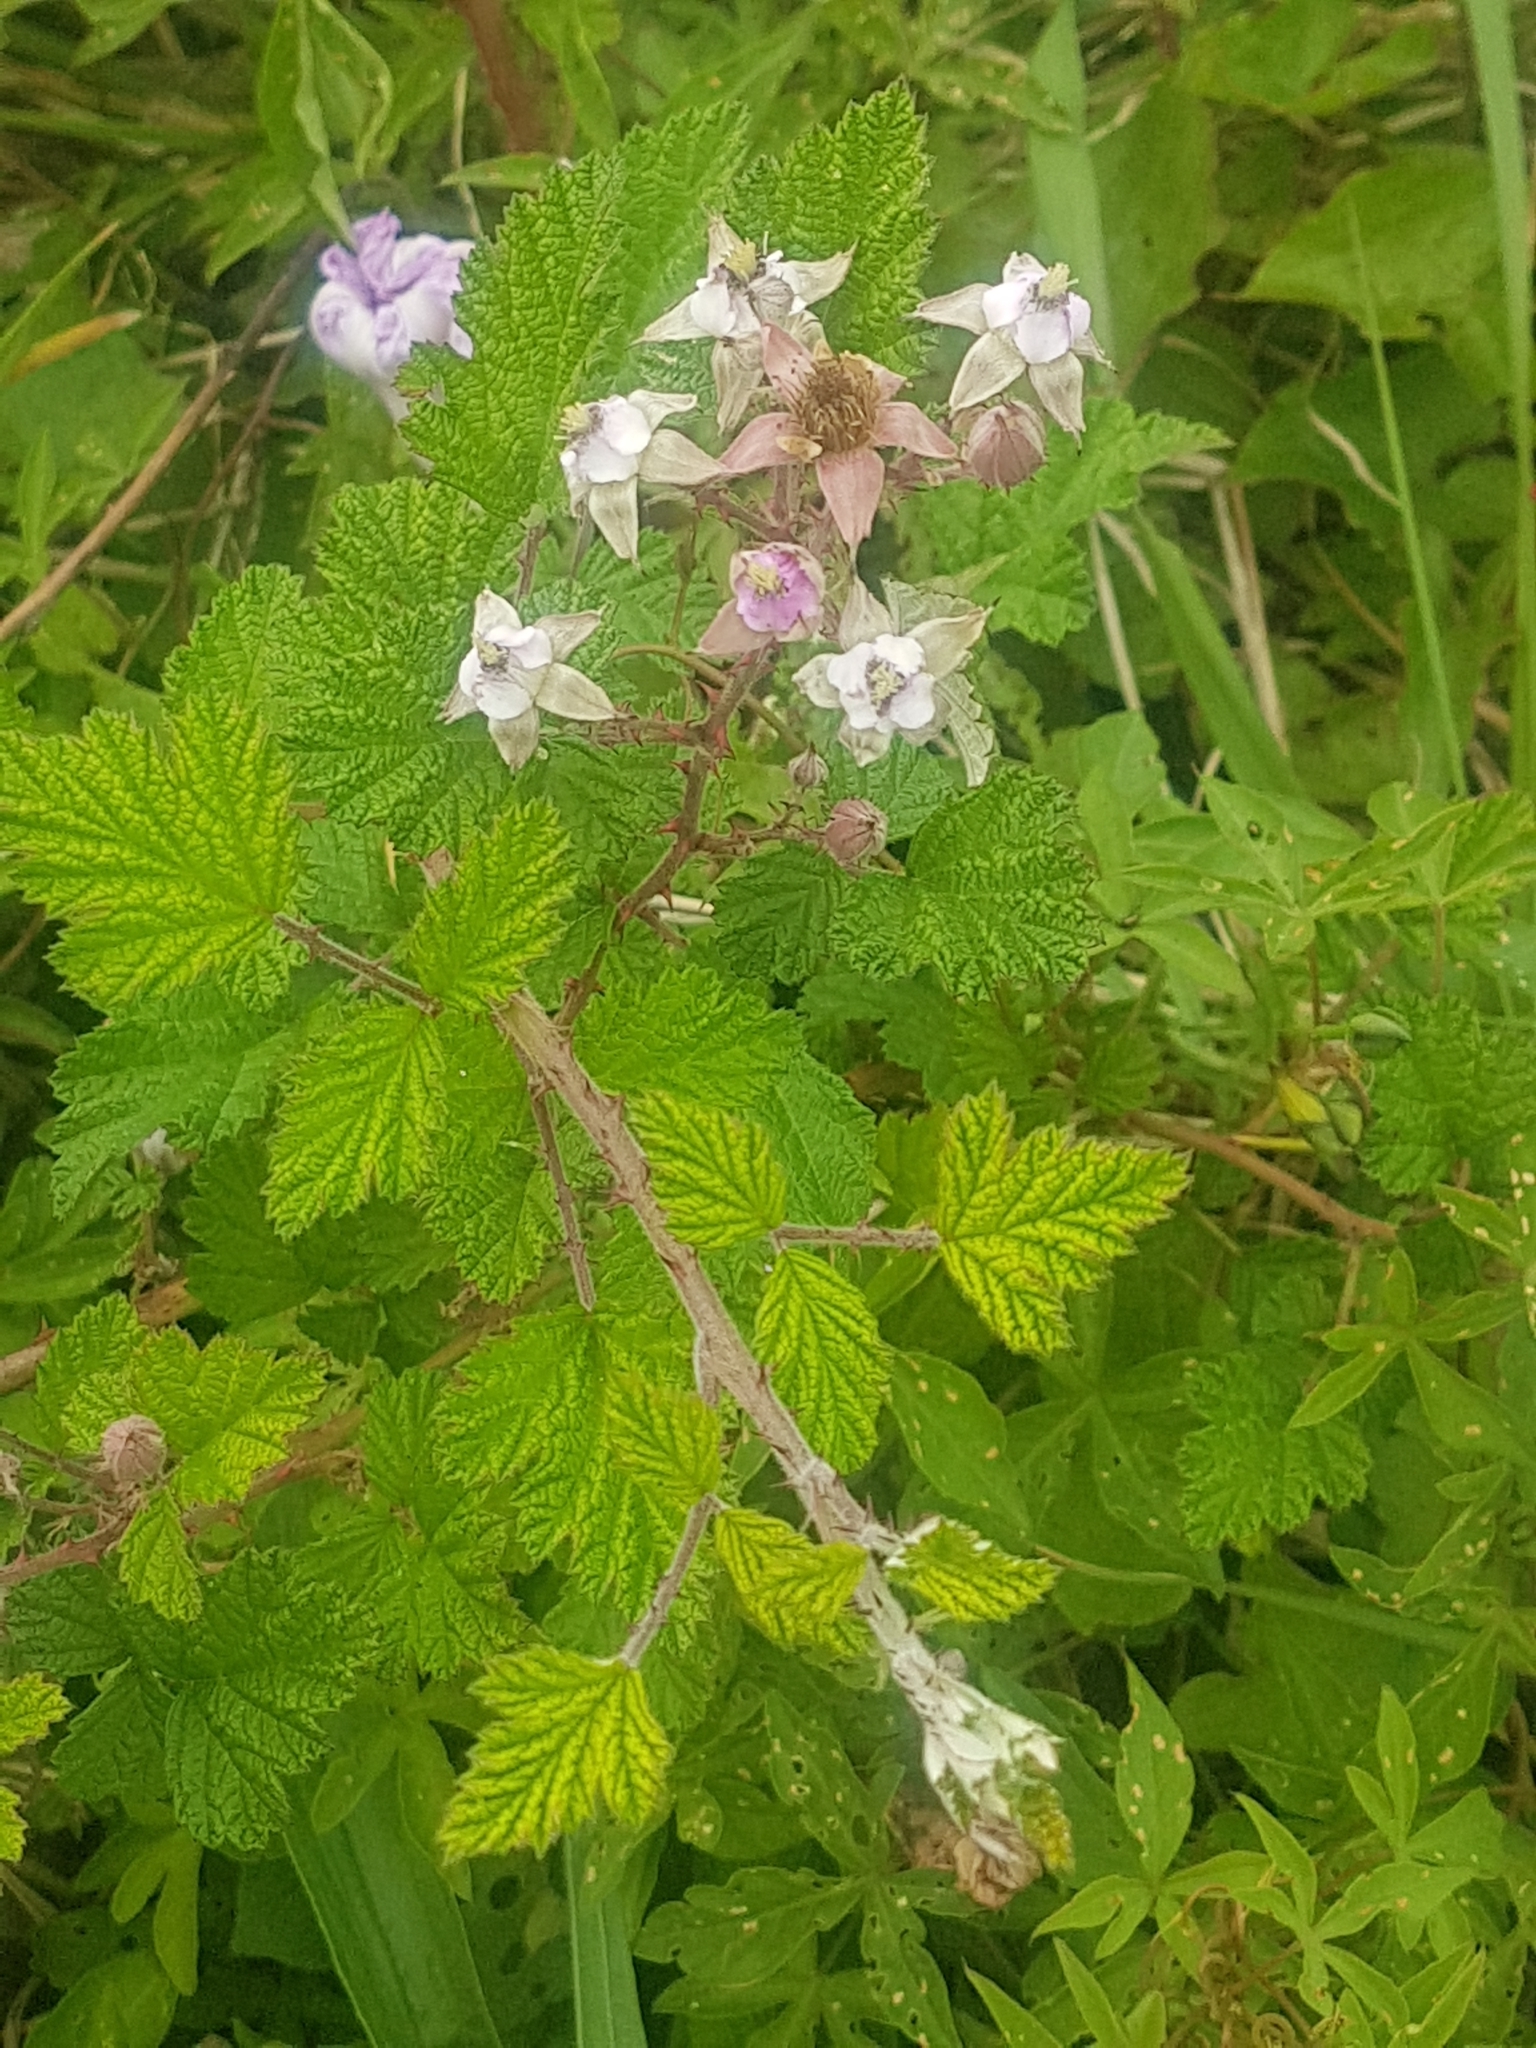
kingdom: Plantae
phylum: Tracheophyta
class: Magnoliopsida
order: Rosales
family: Rosaceae
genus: Rubus
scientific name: Rubus parvifolius
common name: Threeleaf blackberry
